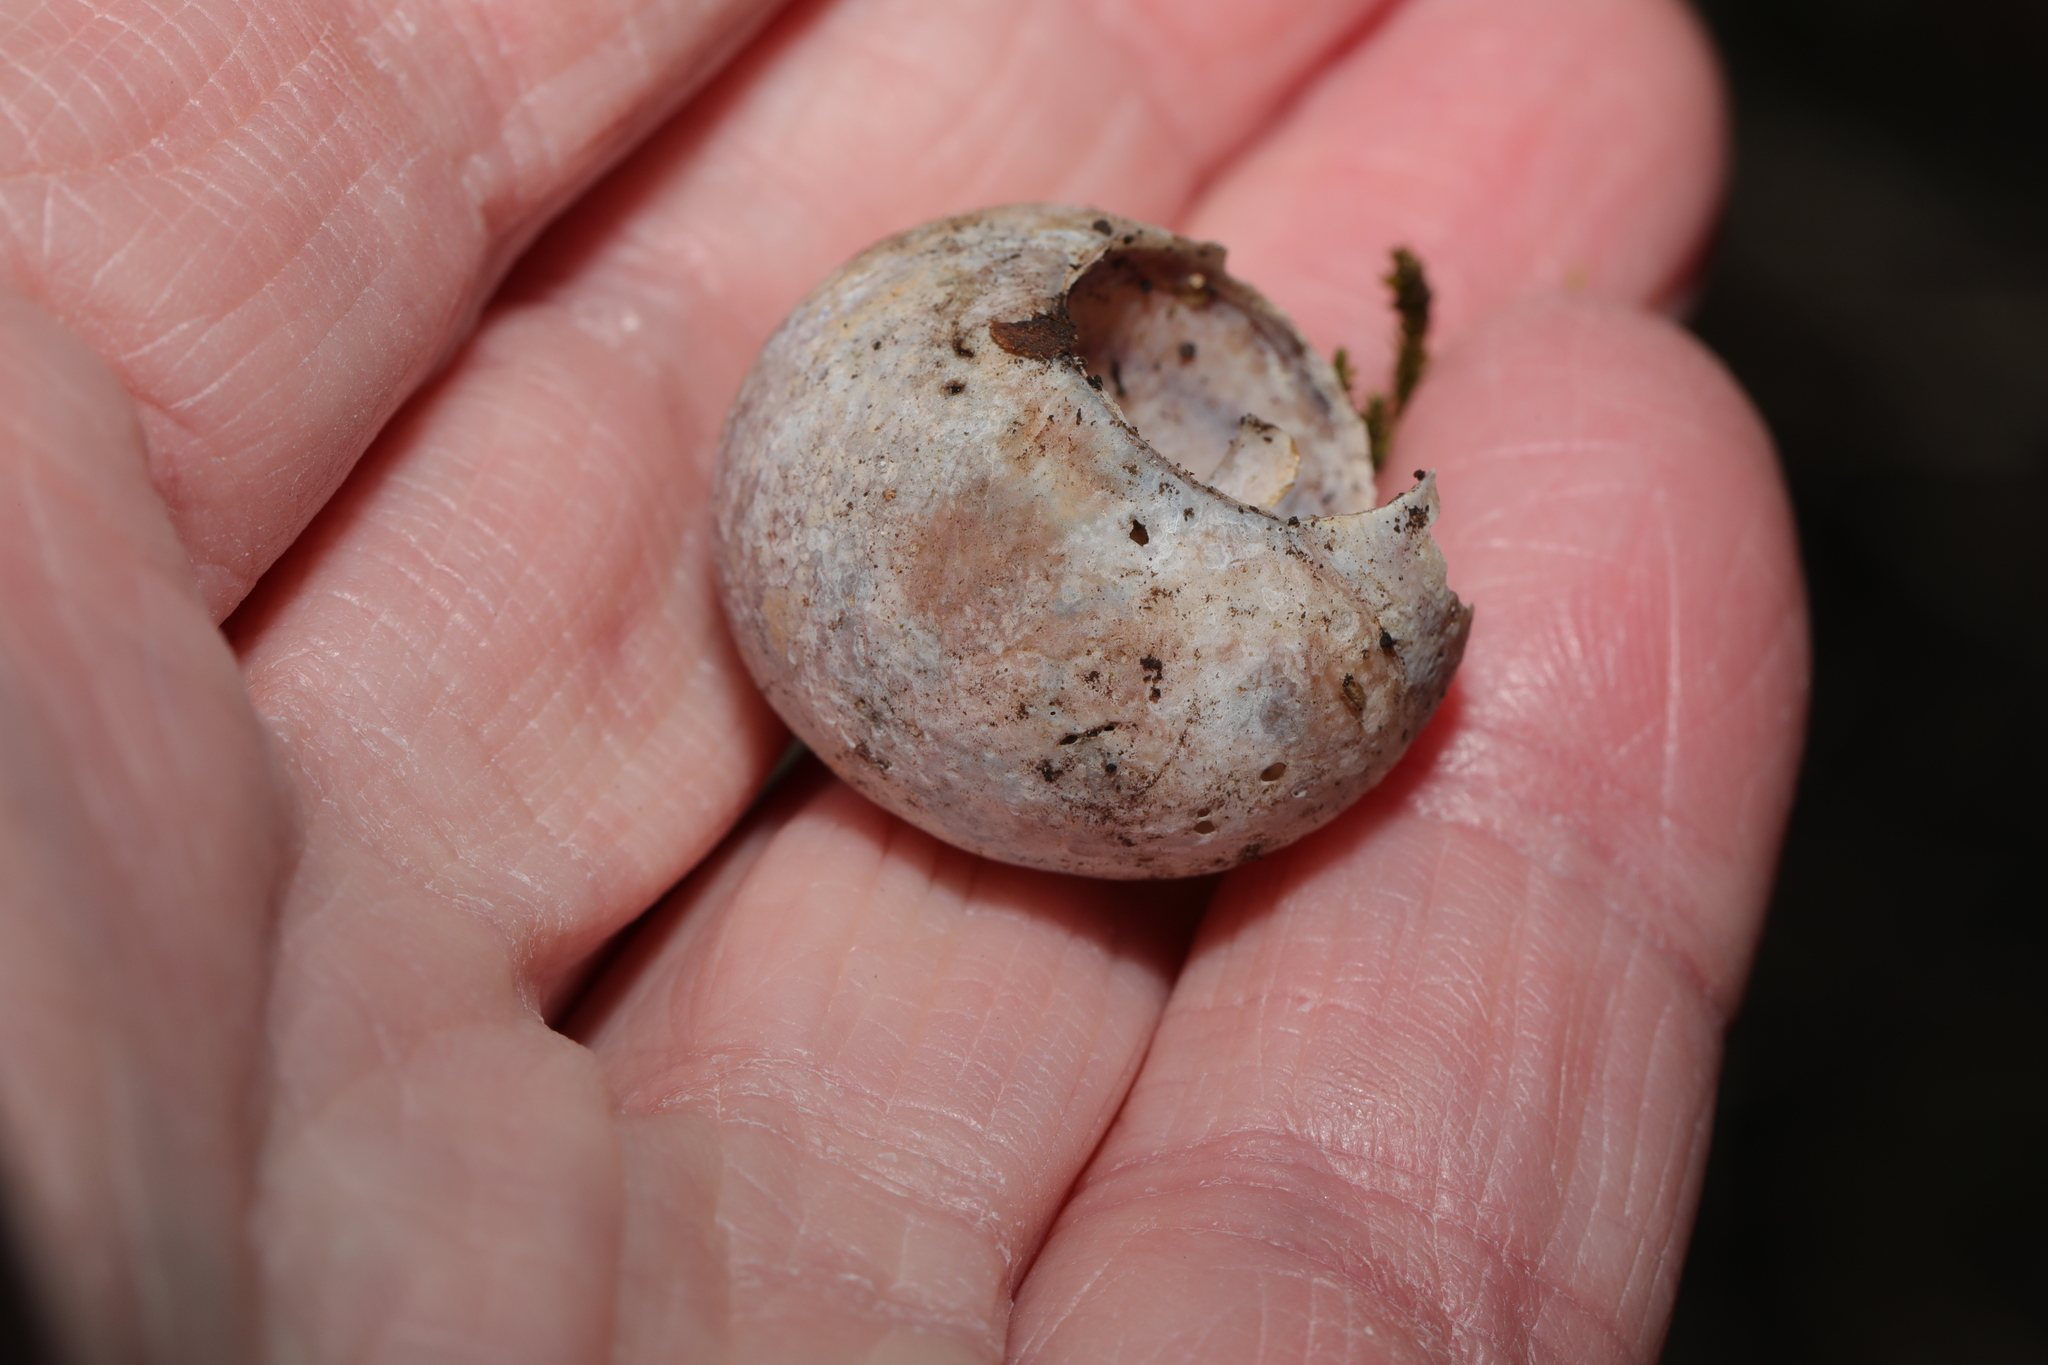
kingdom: Animalia
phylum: Mollusca
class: Gastropoda
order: Stylommatophora
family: Helicidae
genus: Cornu
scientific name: Cornu aspersum
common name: Brown garden snail
